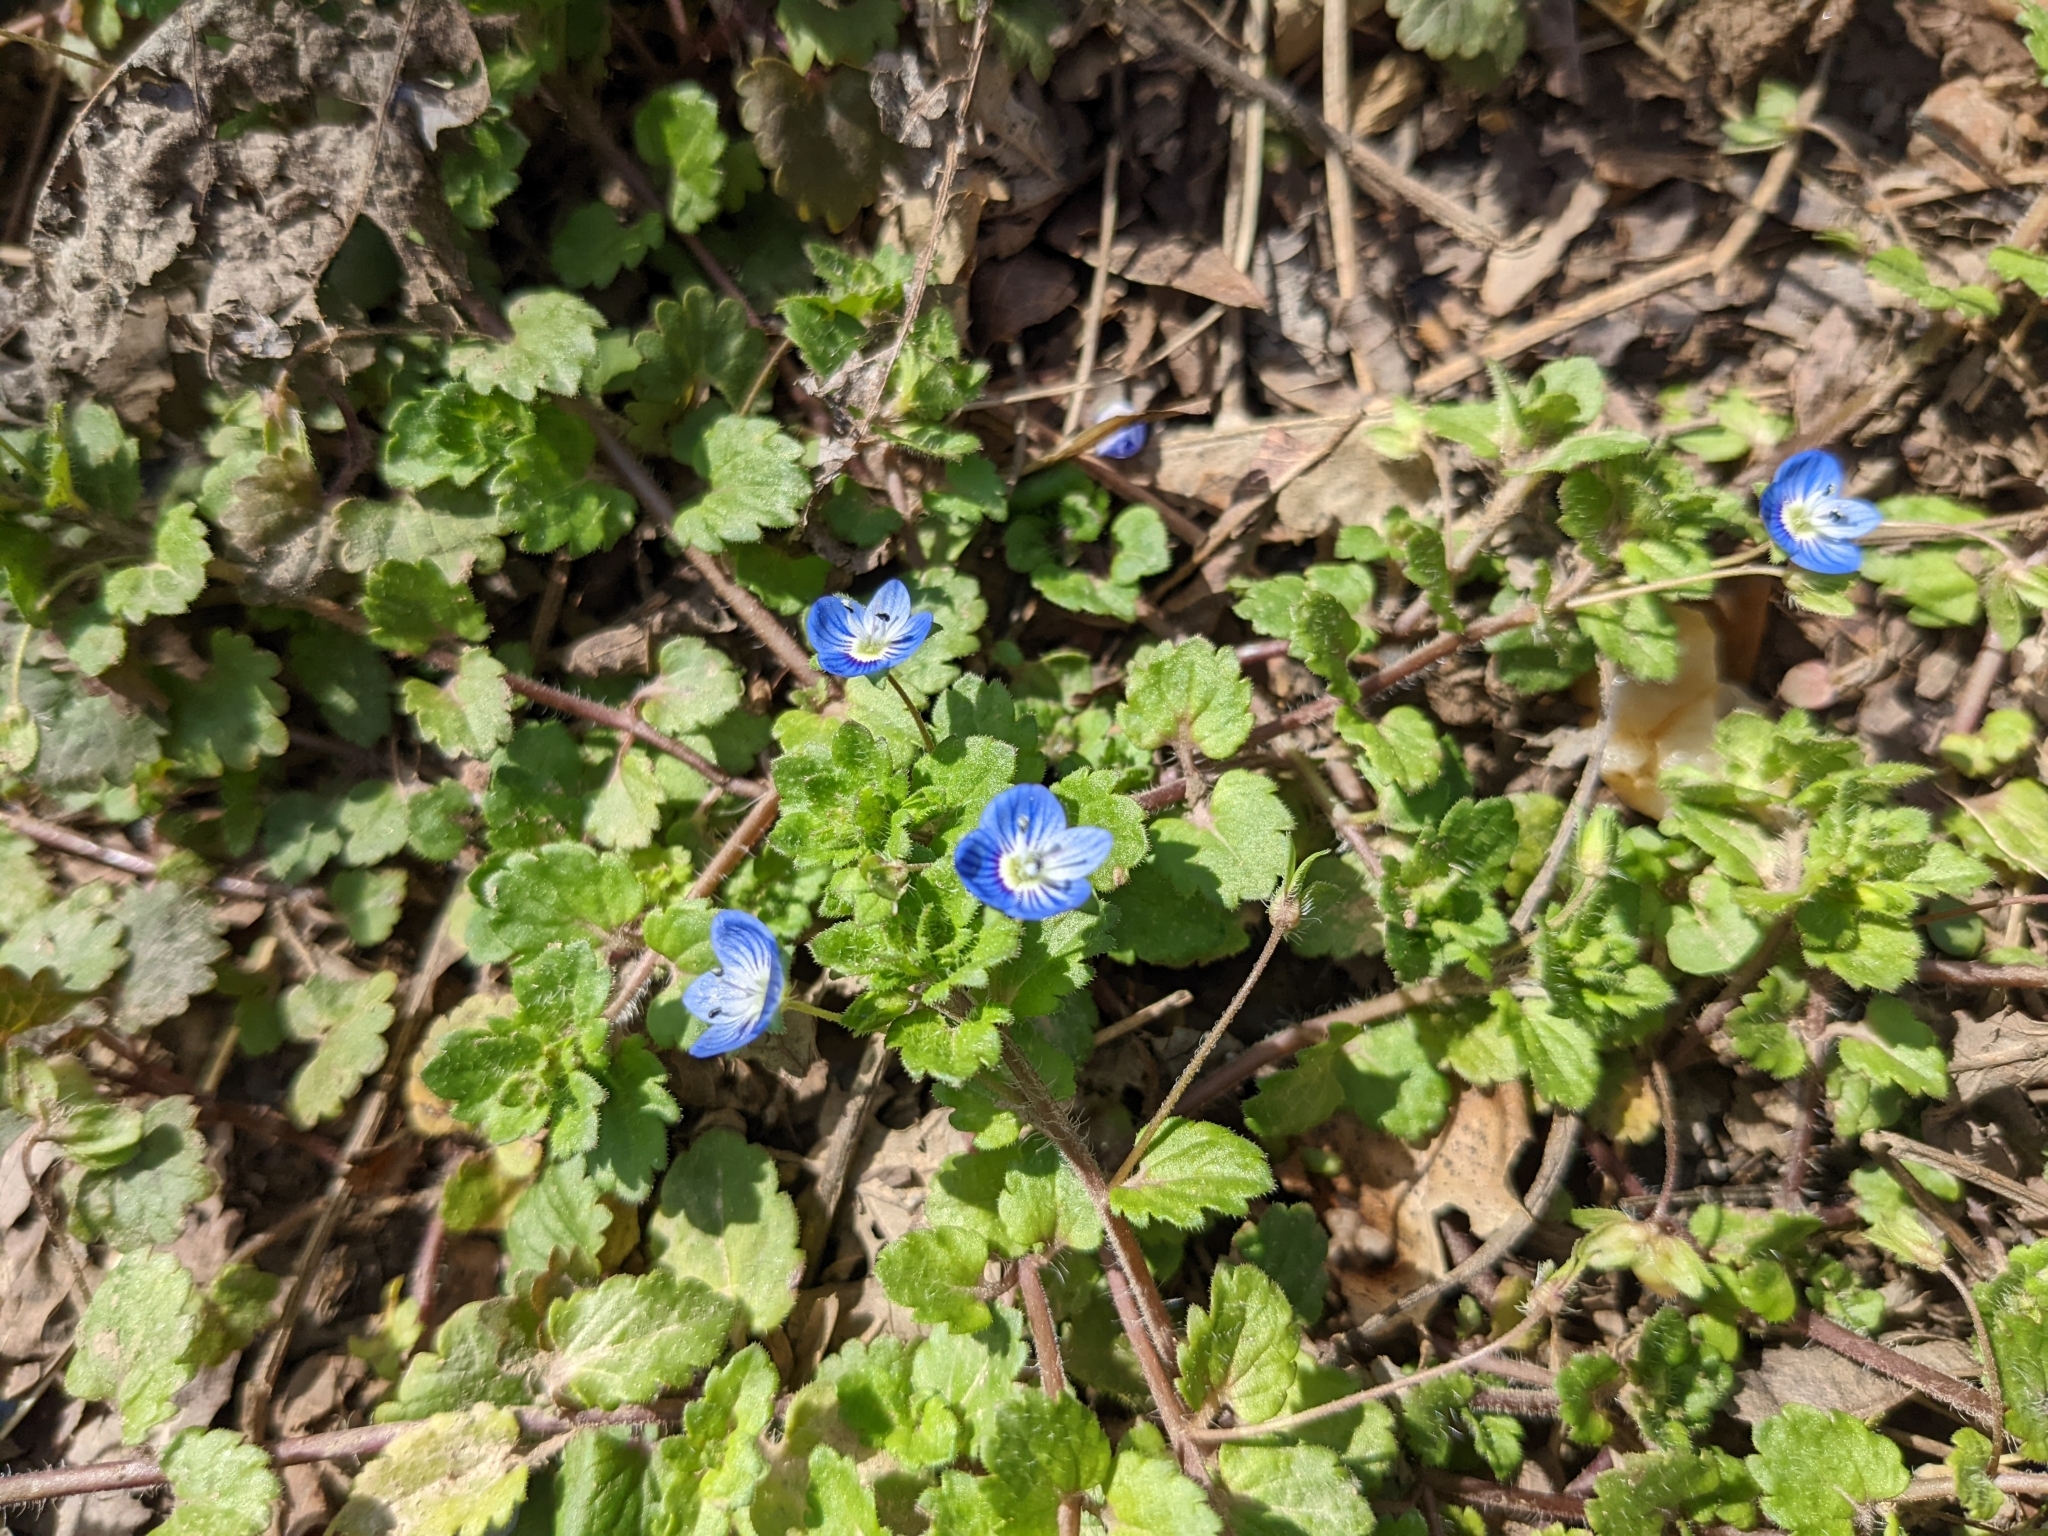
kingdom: Plantae
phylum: Tracheophyta
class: Magnoliopsida
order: Lamiales
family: Plantaginaceae
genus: Veronica
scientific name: Veronica persica
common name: Common field-speedwell
